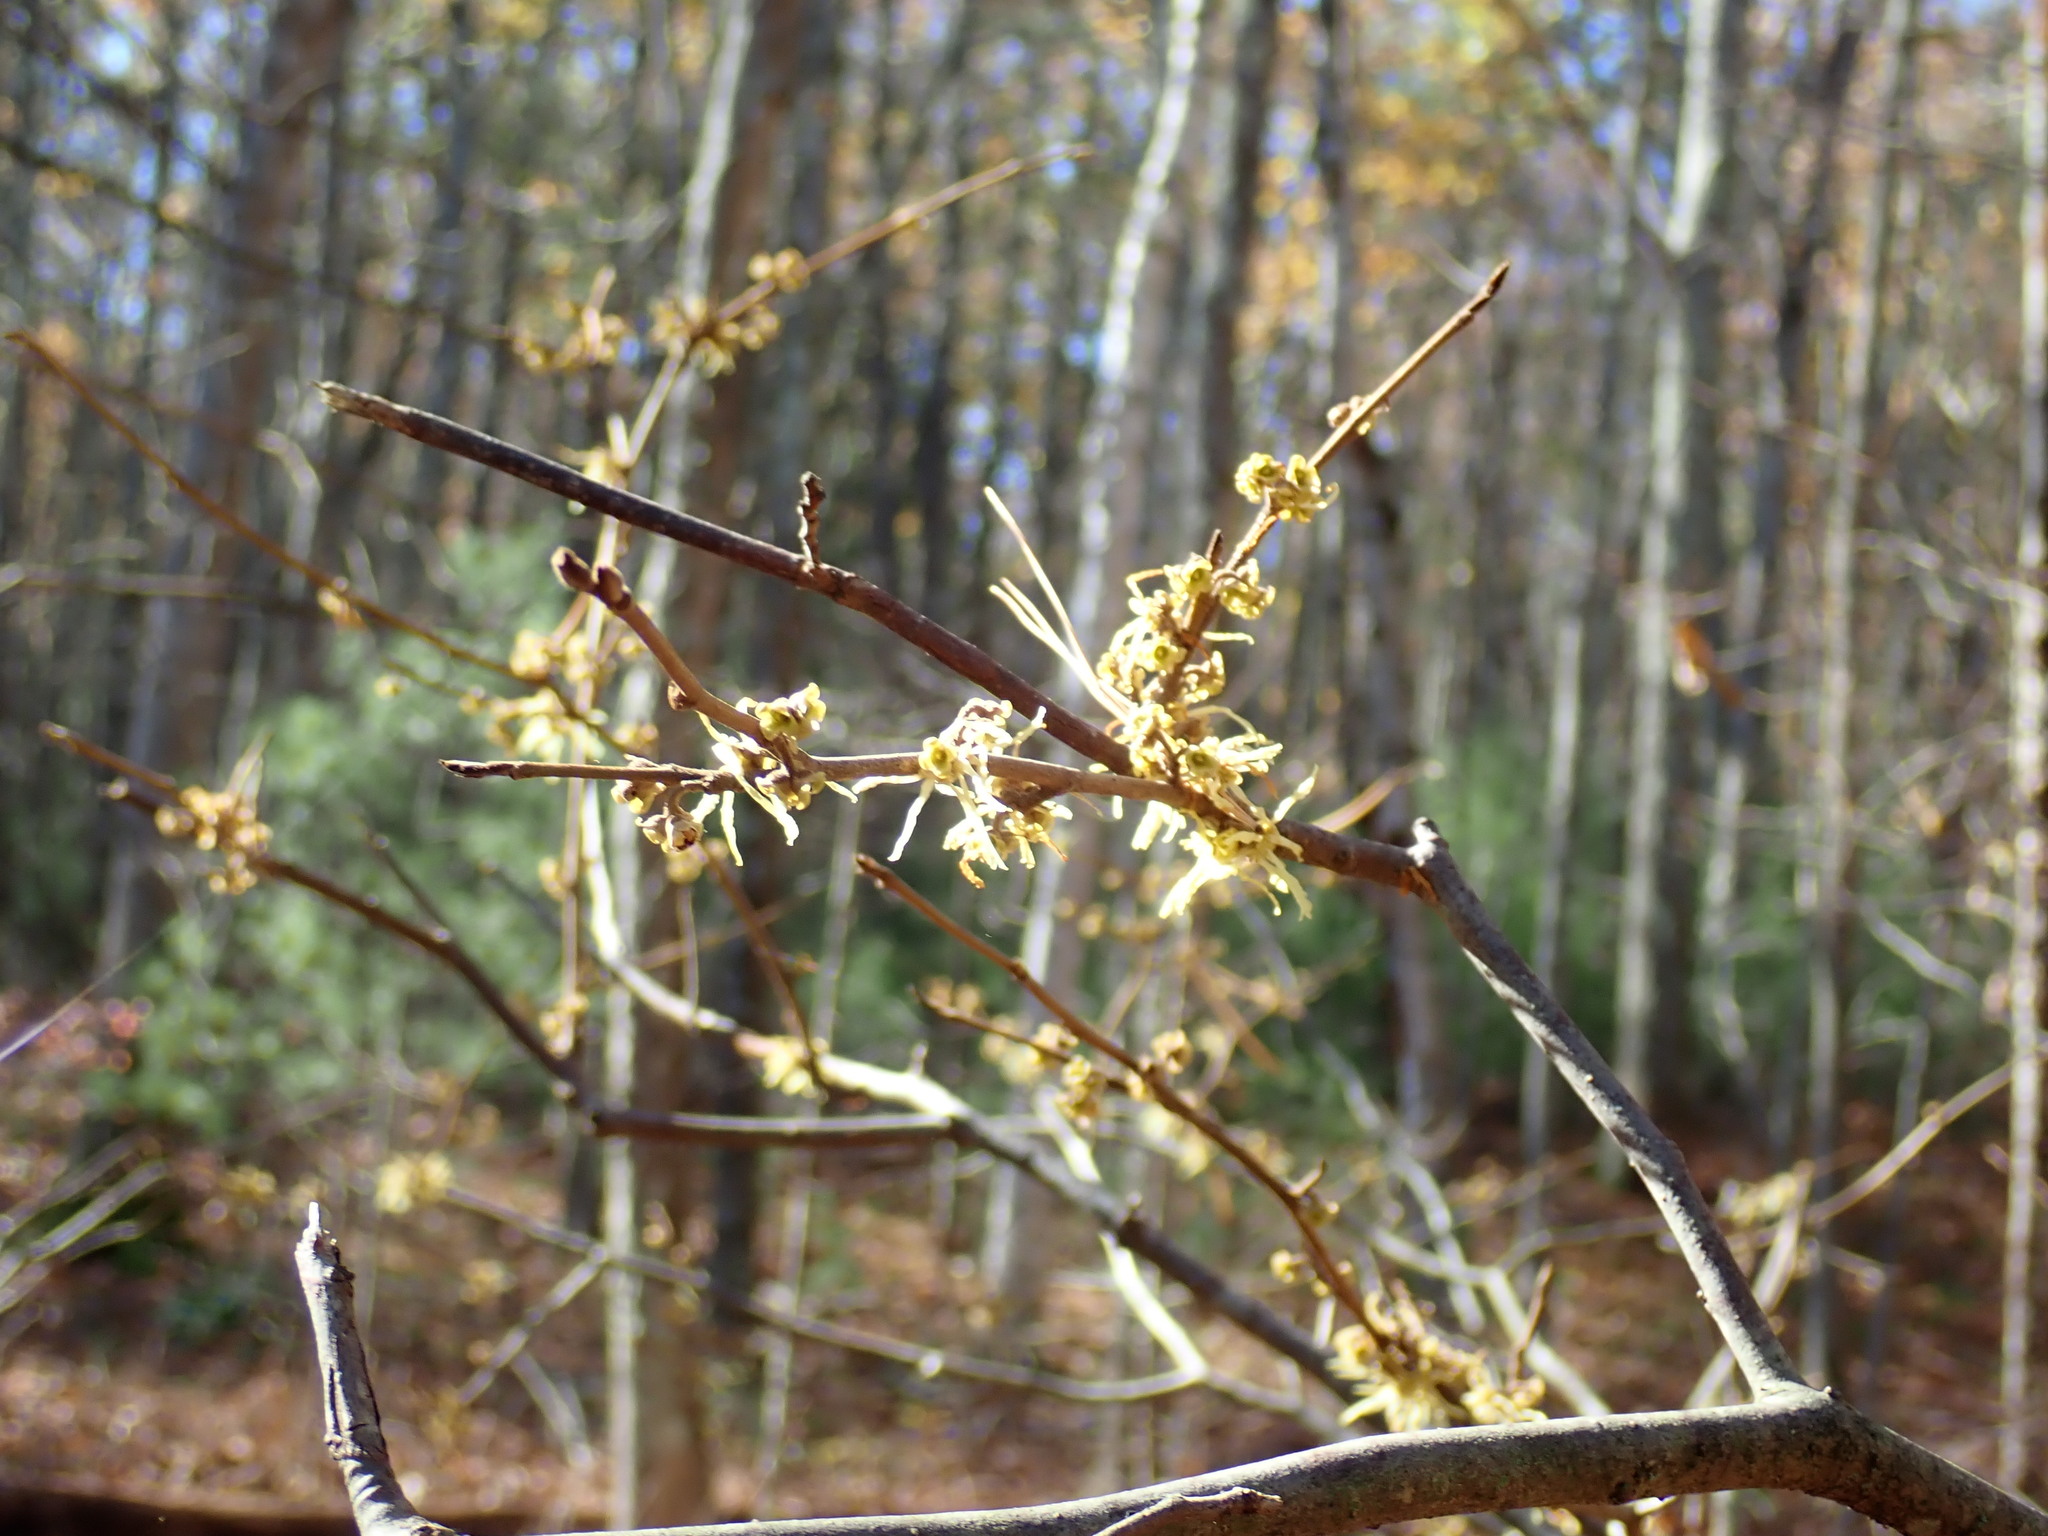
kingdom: Plantae
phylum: Tracheophyta
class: Magnoliopsida
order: Saxifragales
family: Hamamelidaceae
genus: Hamamelis
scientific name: Hamamelis virginiana
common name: Witch-hazel
